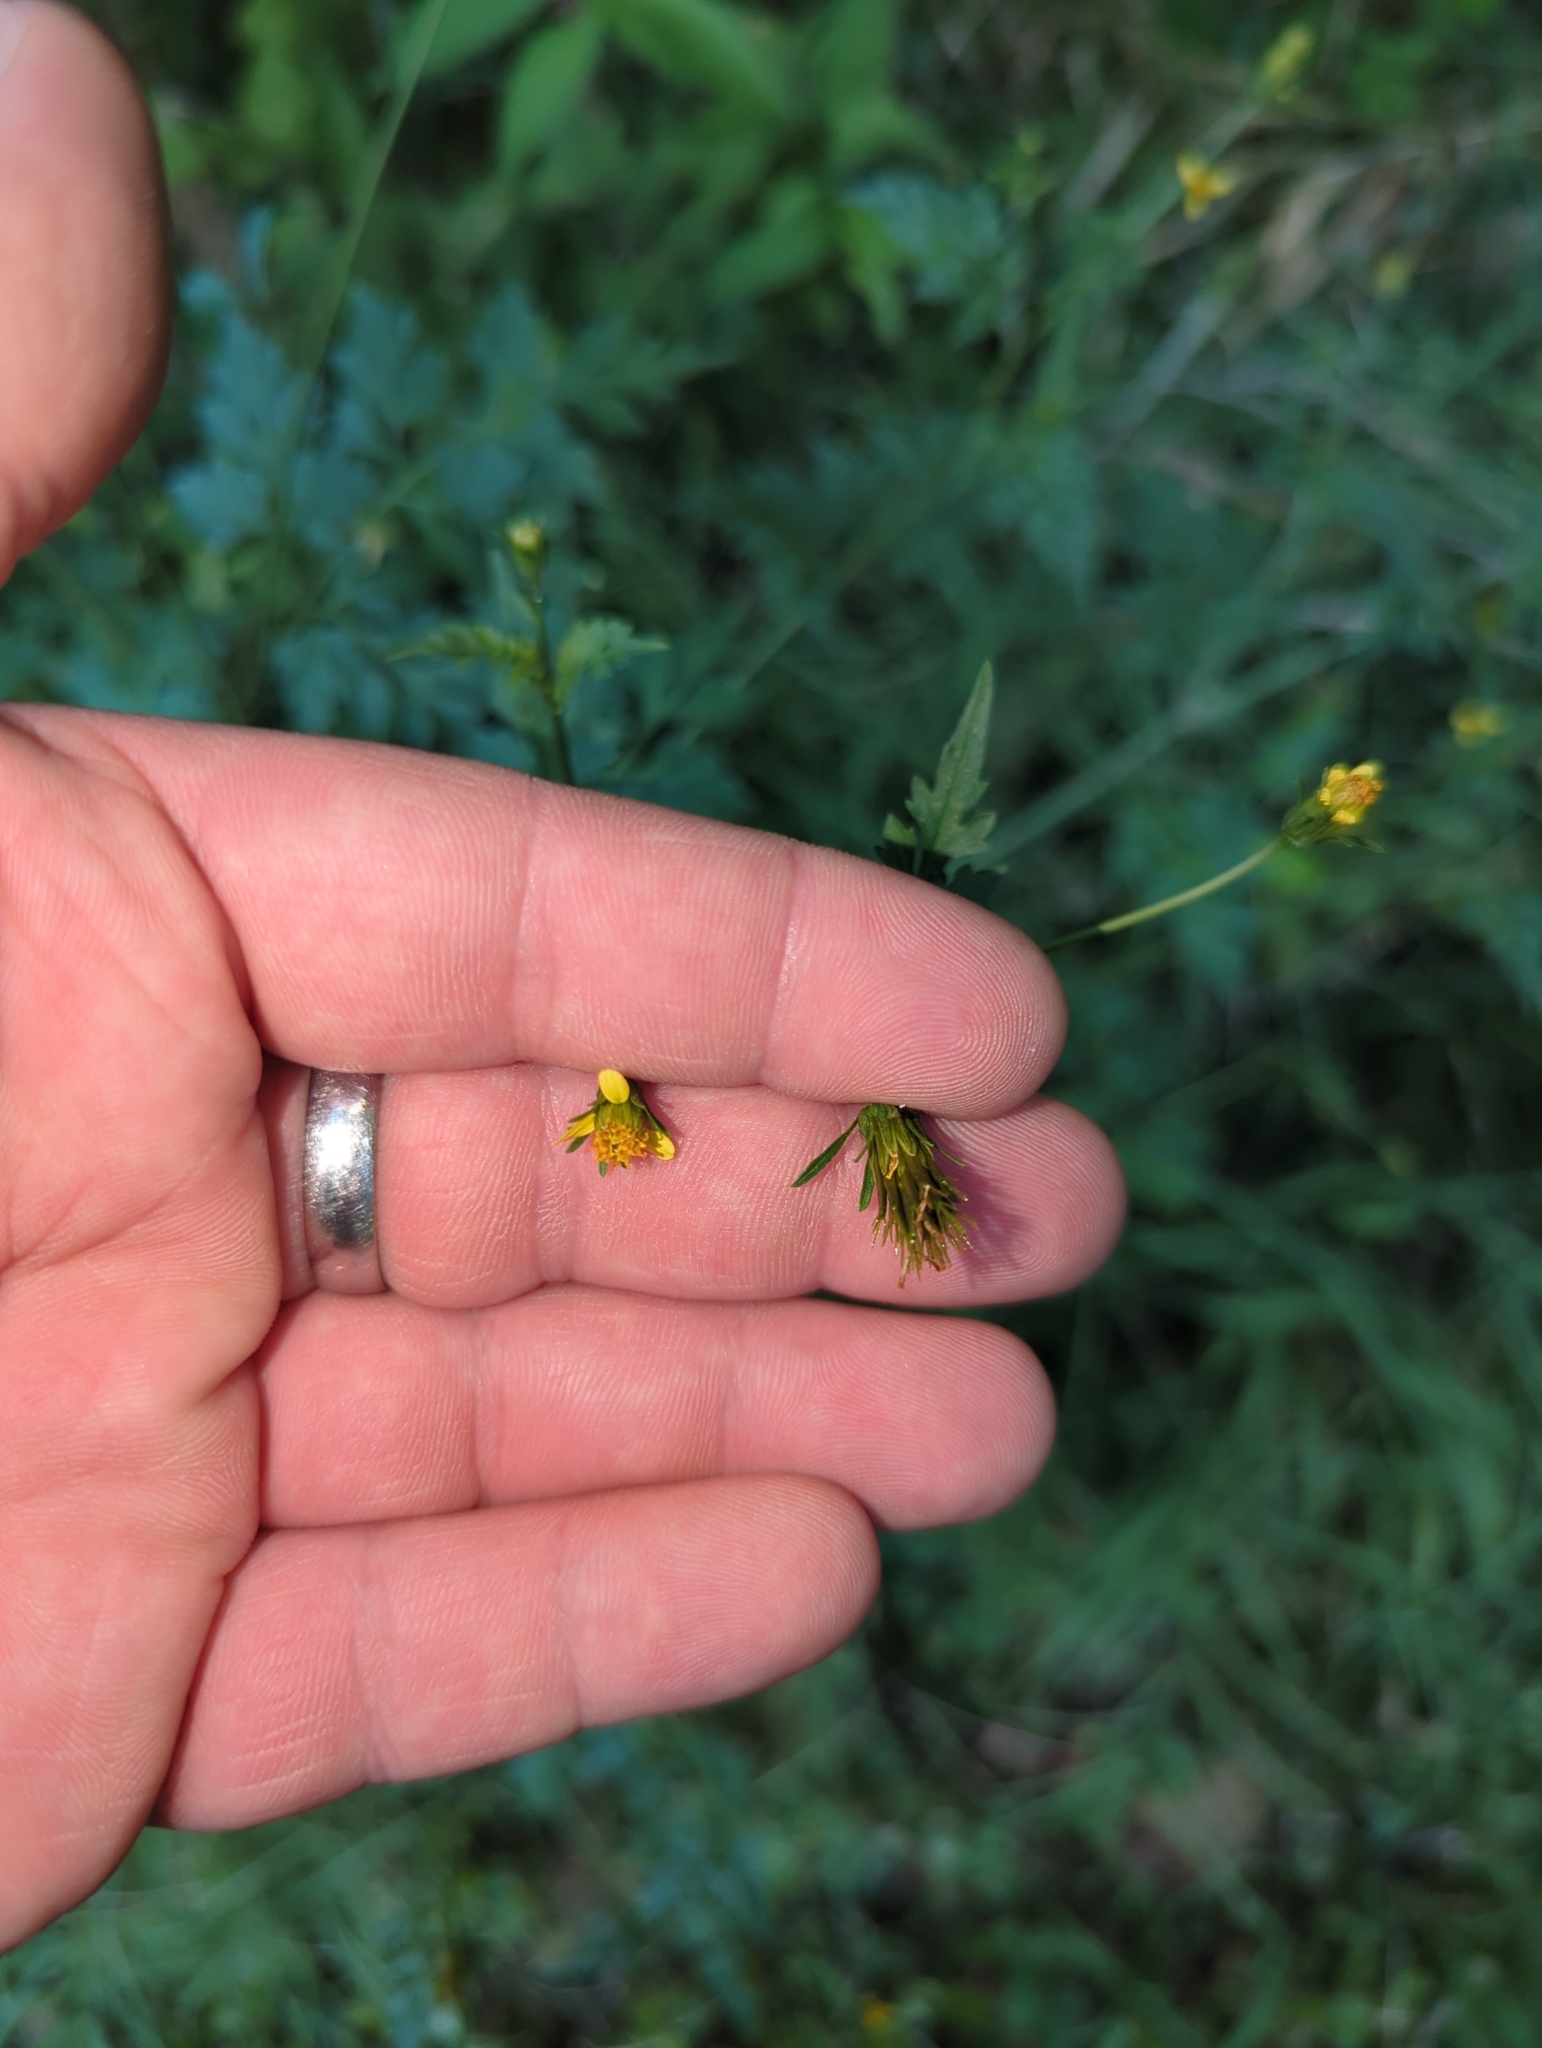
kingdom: Plantae
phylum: Tracheophyta
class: Magnoliopsida
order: Asterales
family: Asteraceae
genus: Bidens
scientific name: Bidens bipinnata
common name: Spanish-needles
